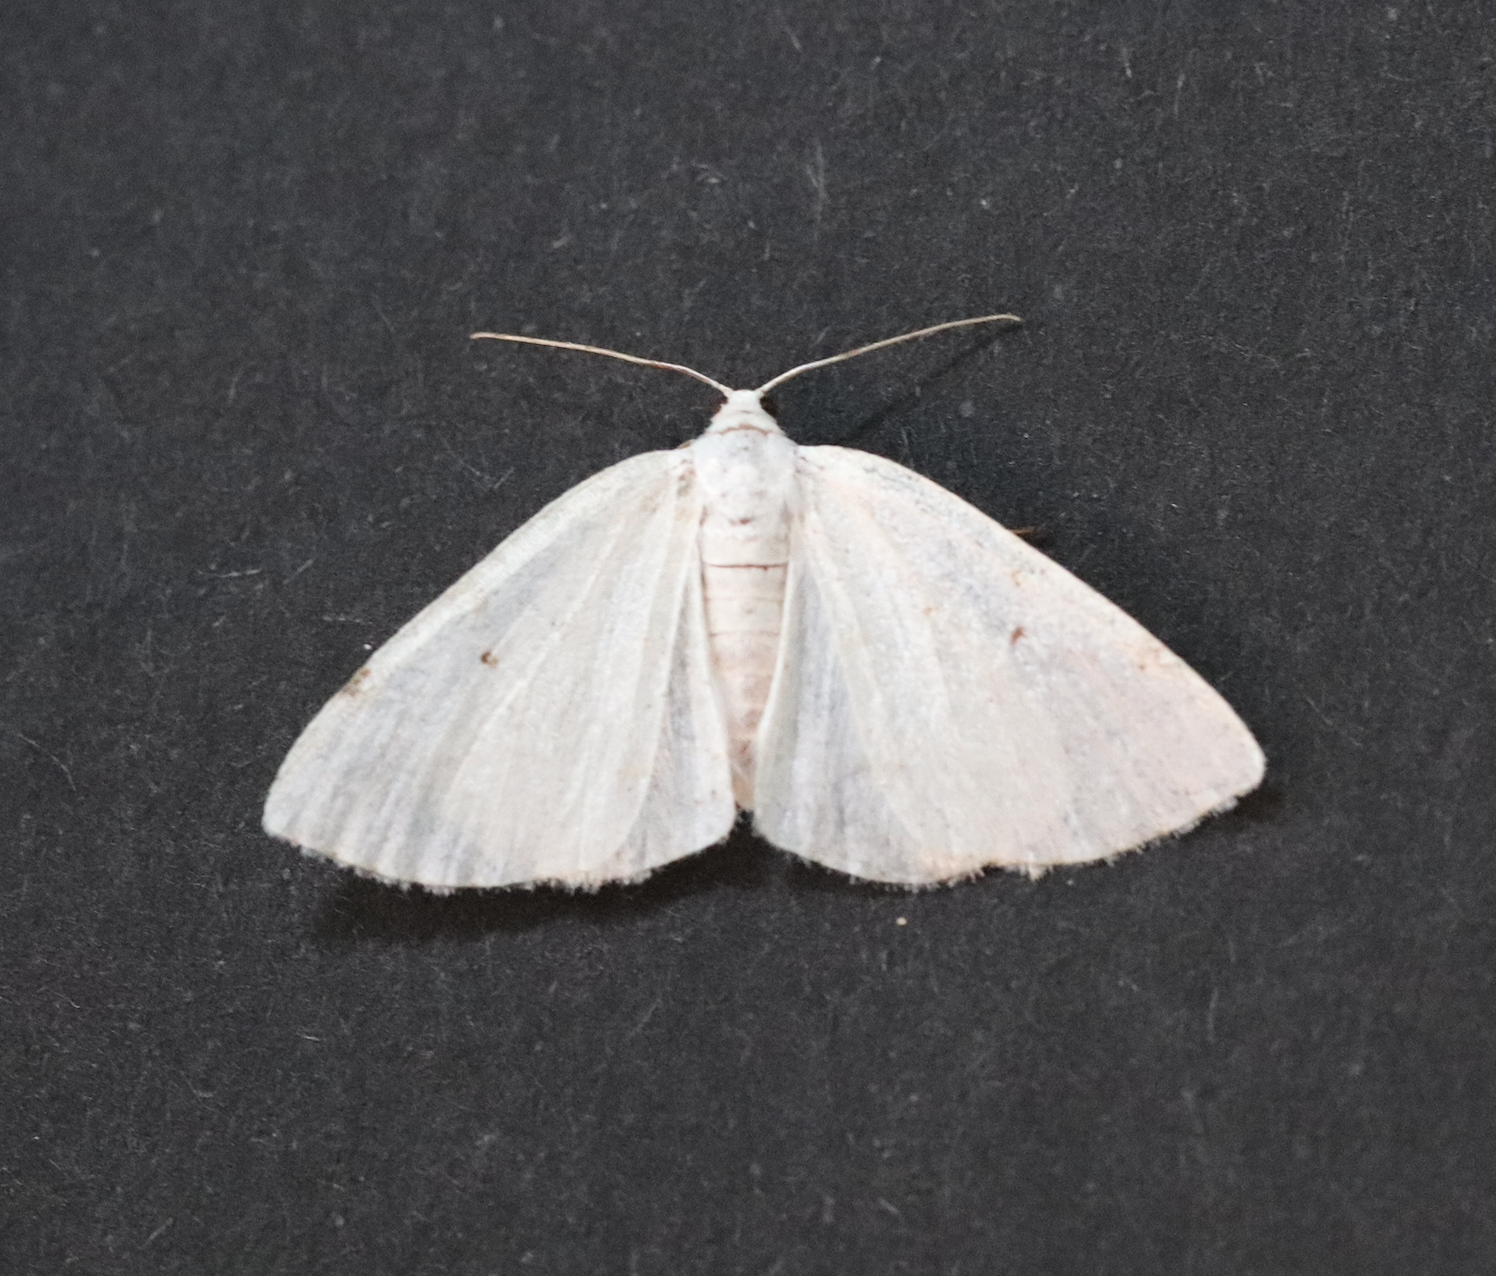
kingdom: Animalia
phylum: Arthropoda
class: Insecta
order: Lepidoptera
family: Geometridae
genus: Lomographa
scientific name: Lomographa bimaculata
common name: White-pinion spotted
